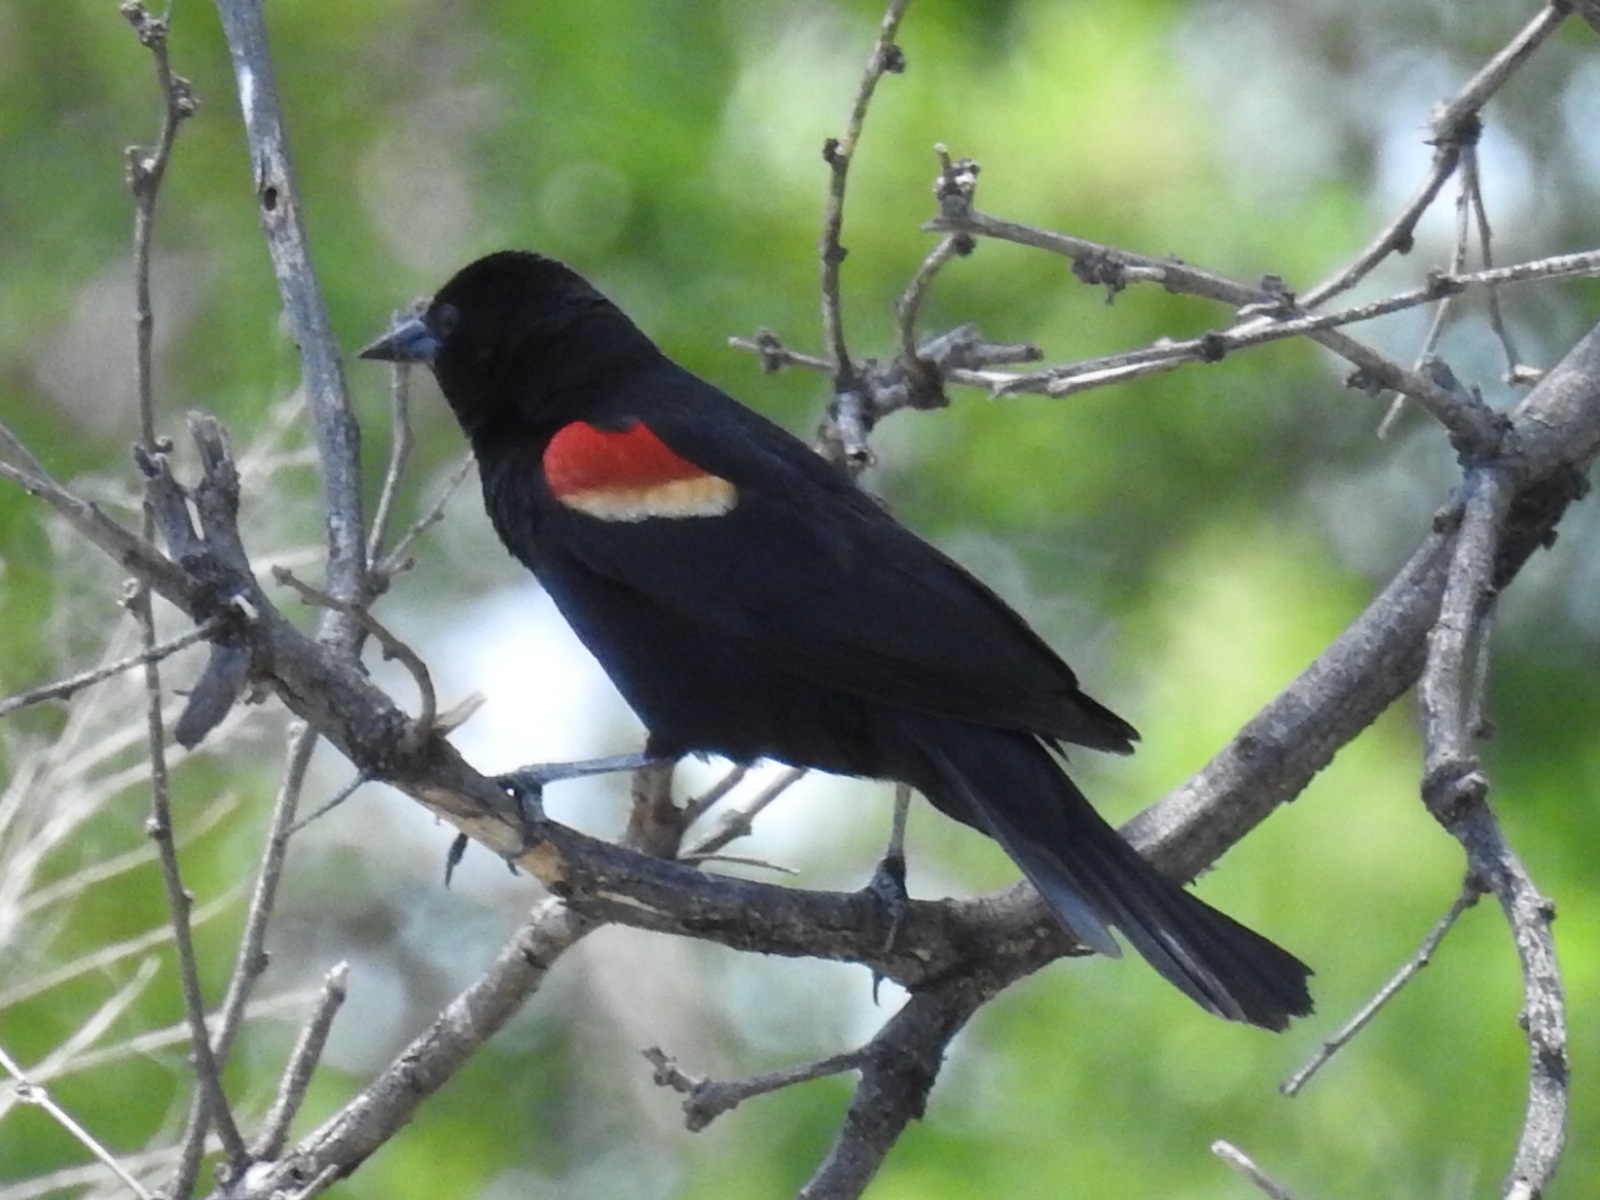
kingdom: Animalia
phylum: Chordata
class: Aves
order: Passeriformes
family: Icteridae
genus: Agelaius
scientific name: Agelaius phoeniceus
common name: Red-winged blackbird
